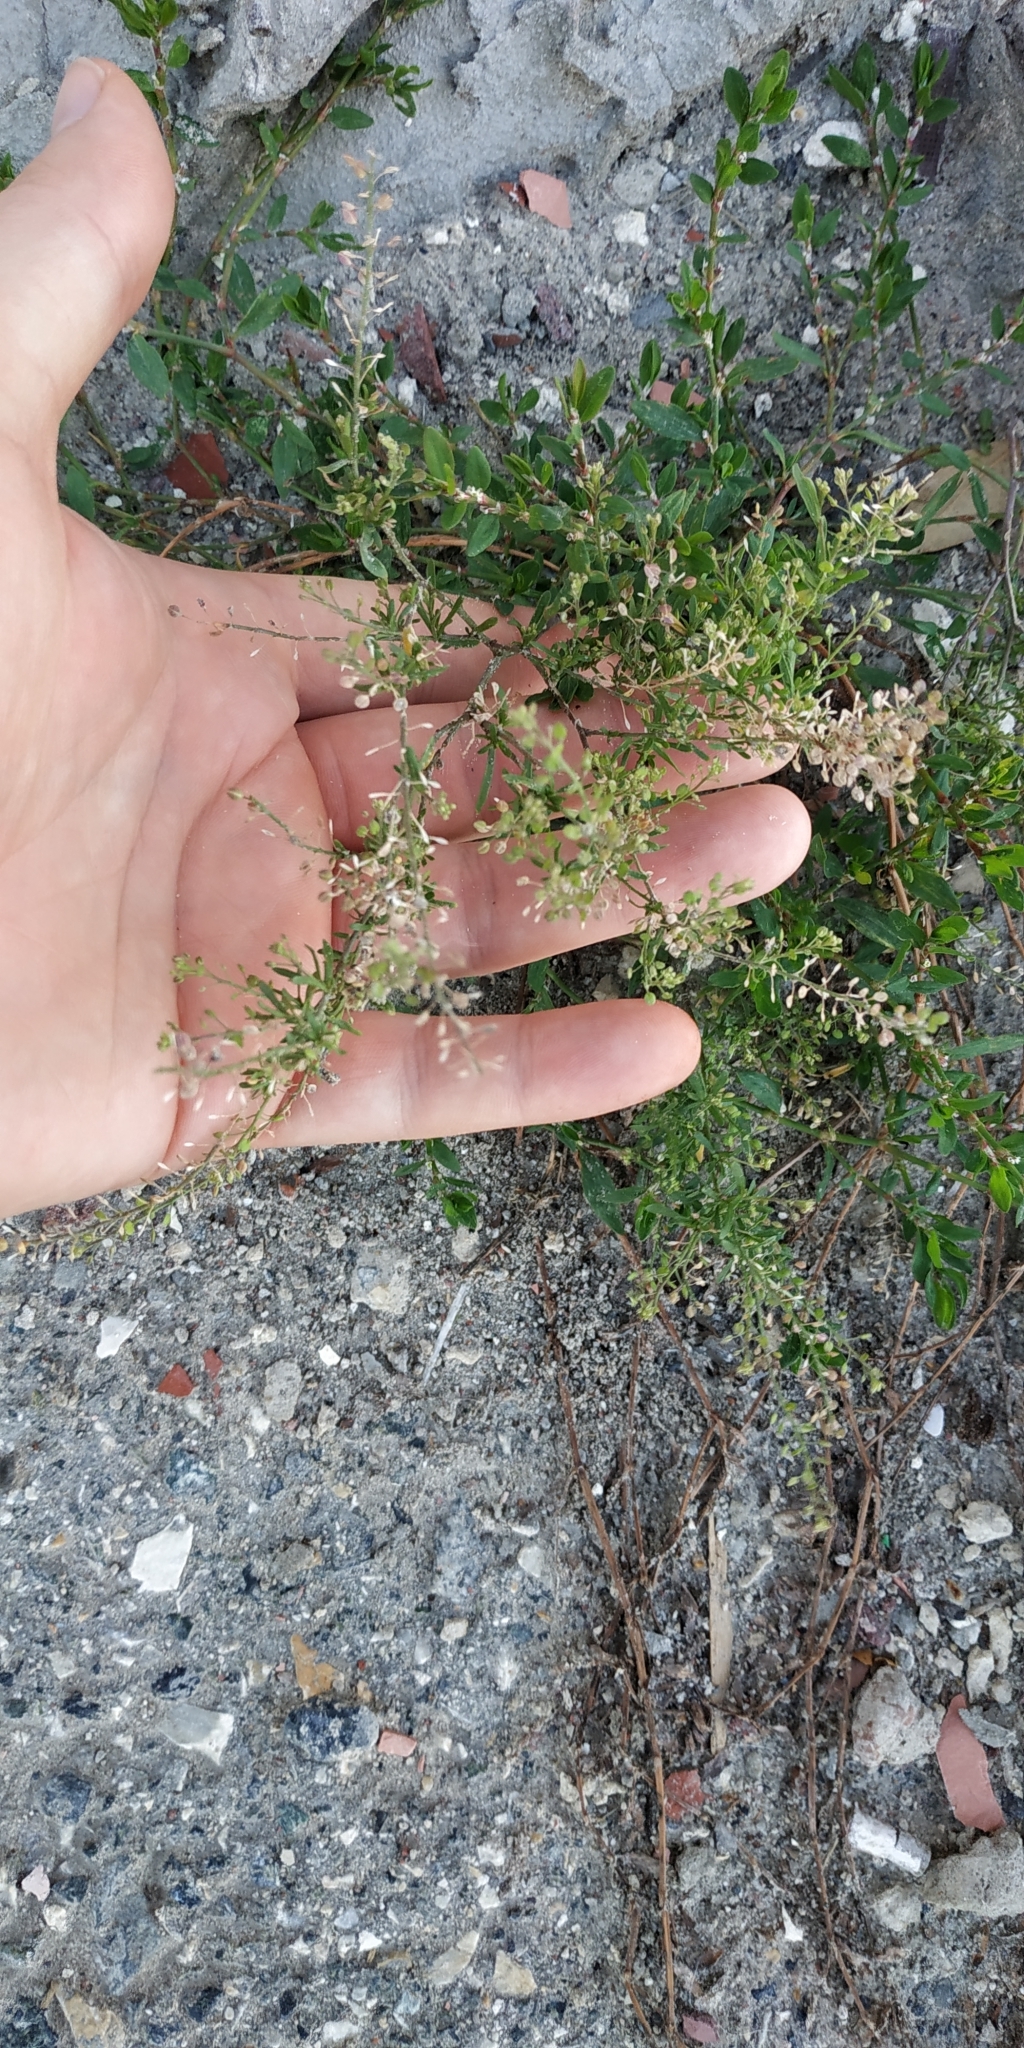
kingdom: Plantae
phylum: Tracheophyta
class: Magnoliopsida
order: Brassicales
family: Brassicaceae
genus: Lepidium
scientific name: Lepidium ruderale
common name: Narrow-leaved pepperwort
